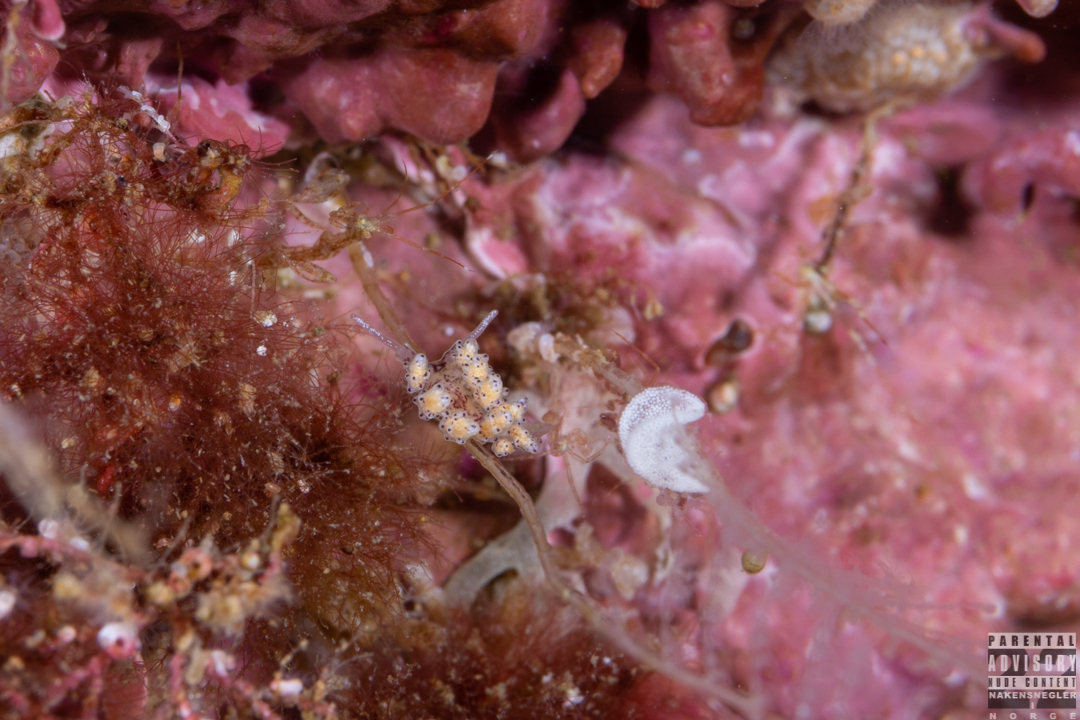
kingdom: Animalia
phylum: Mollusca
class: Gastropoda
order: Nudibranchia
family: Dotidae
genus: Doto
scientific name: Doto dunnei
